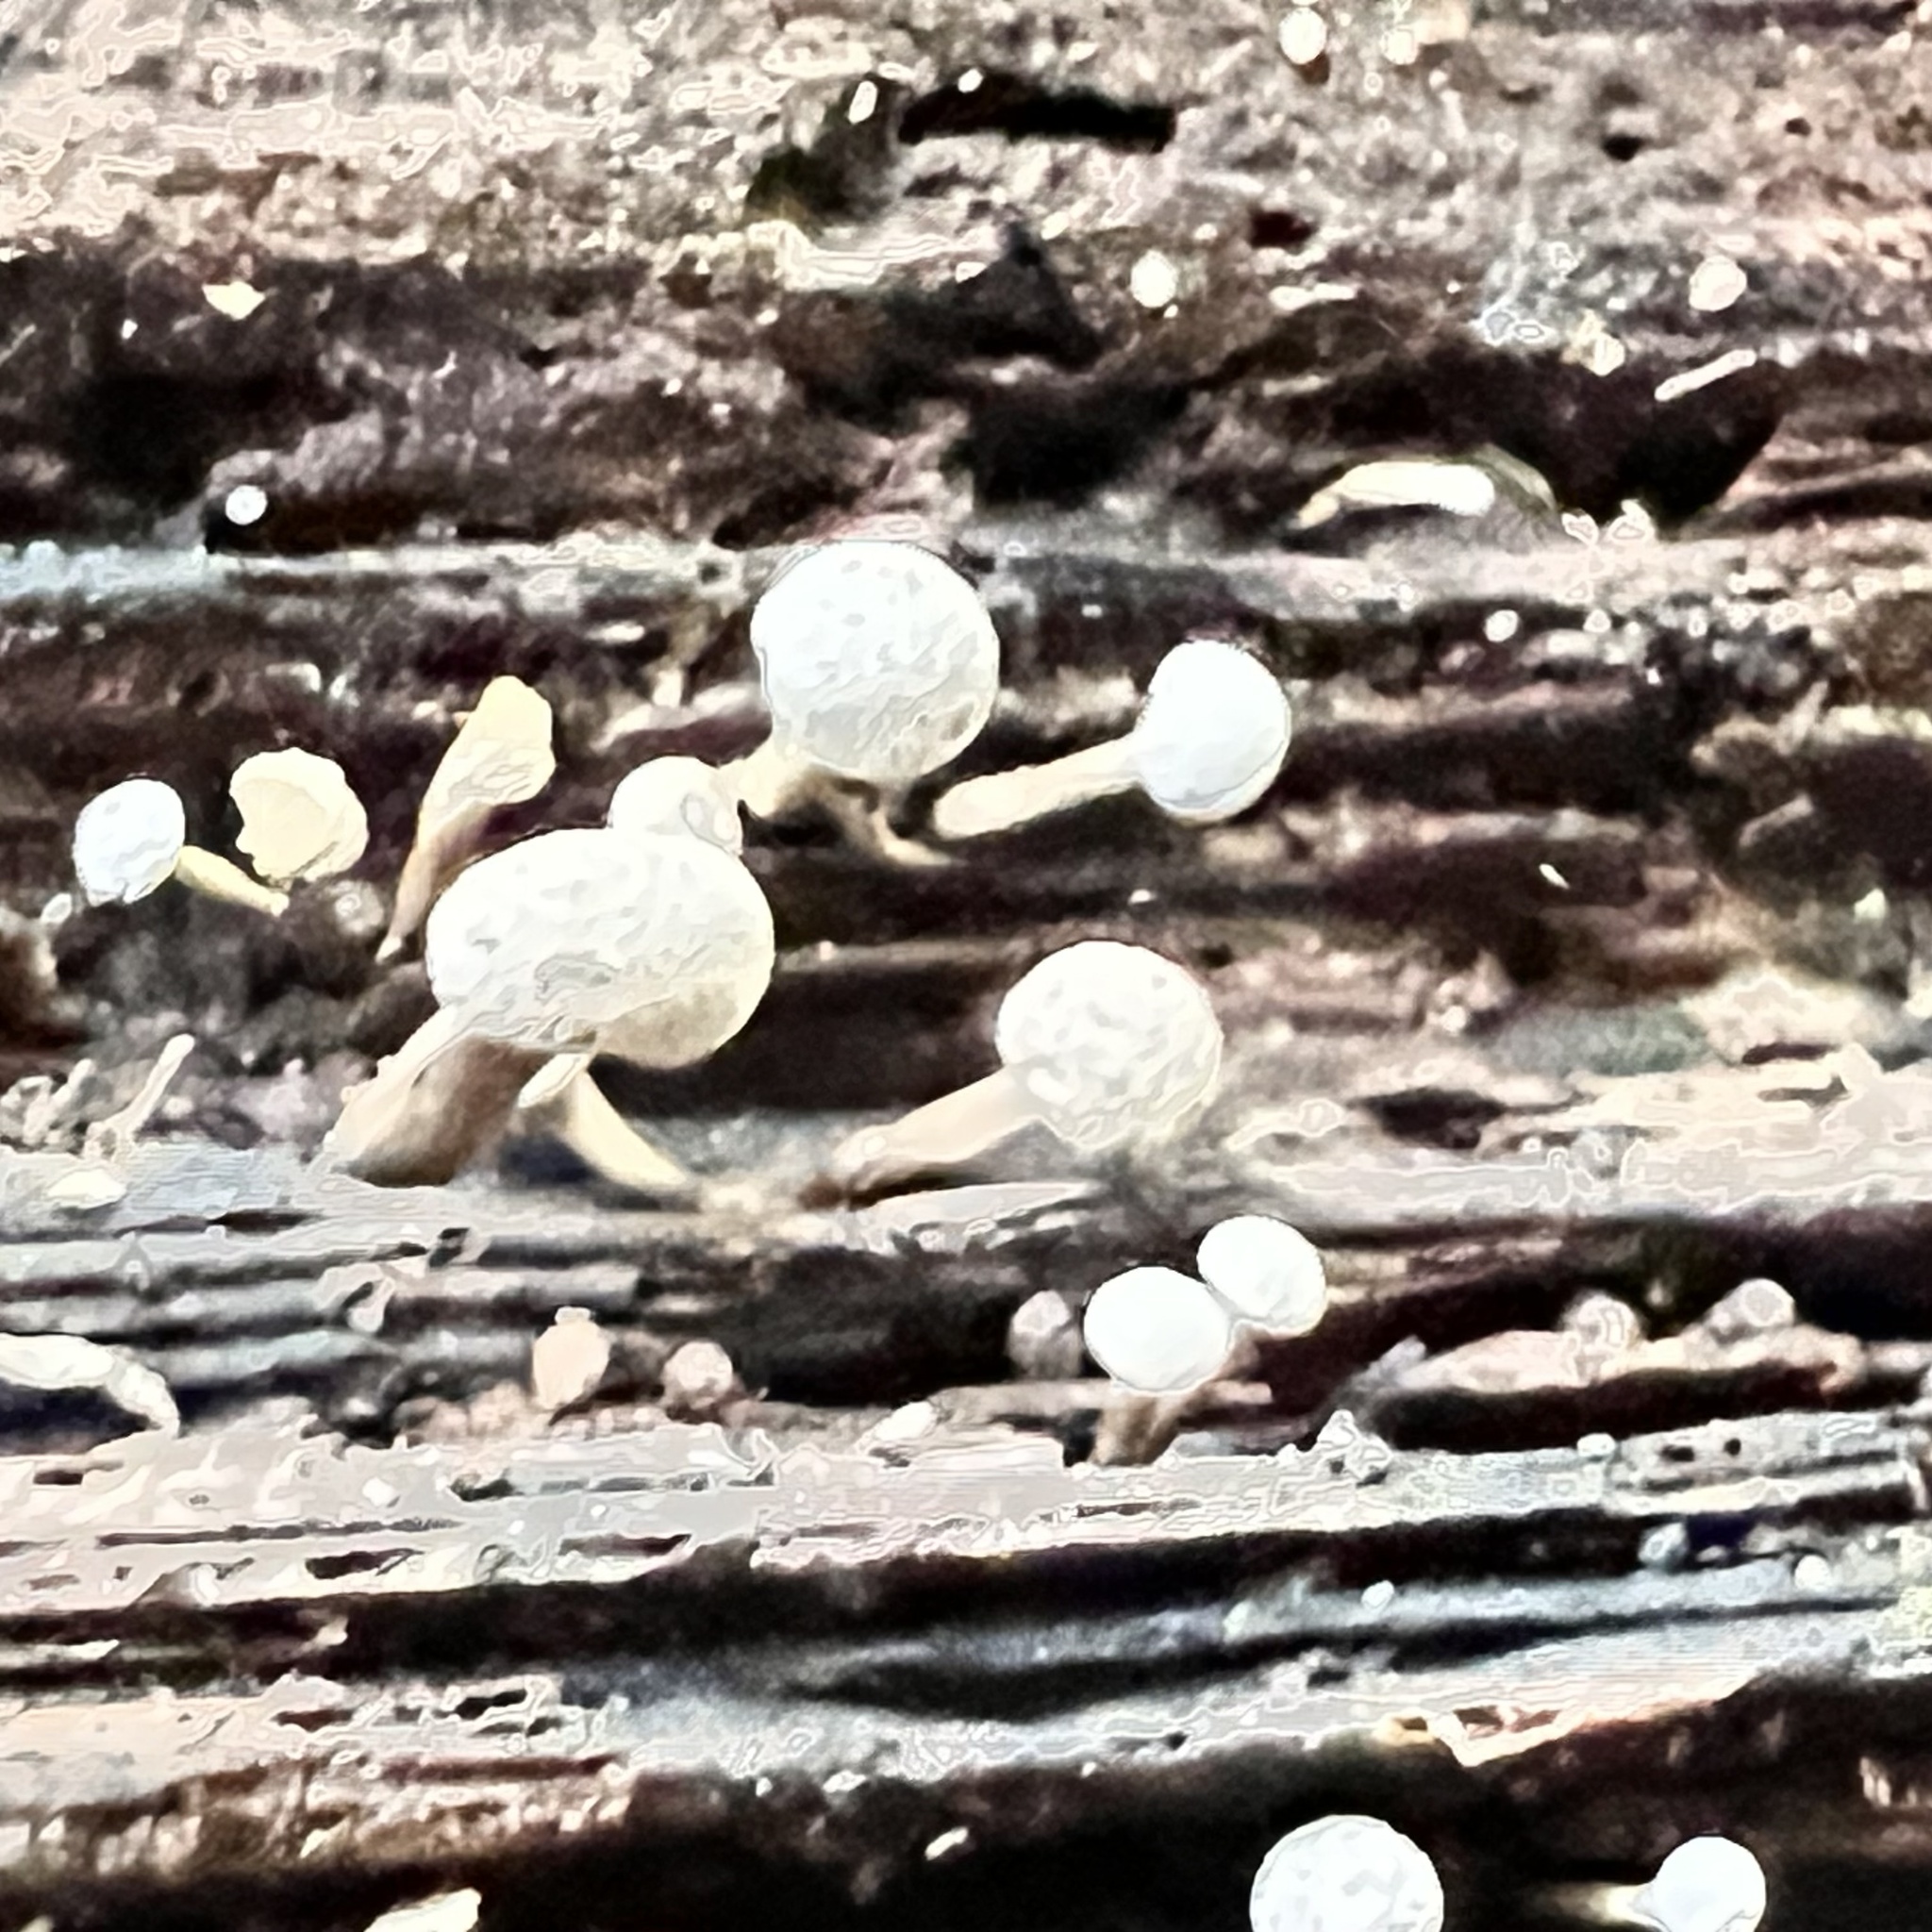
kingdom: Fungi
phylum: Basidiomycota
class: Atractiellomycetes
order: Atractiellales
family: Phleogenaceae
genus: Phleogena
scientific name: Phleogena faginea
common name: Fenugreek stalkball
